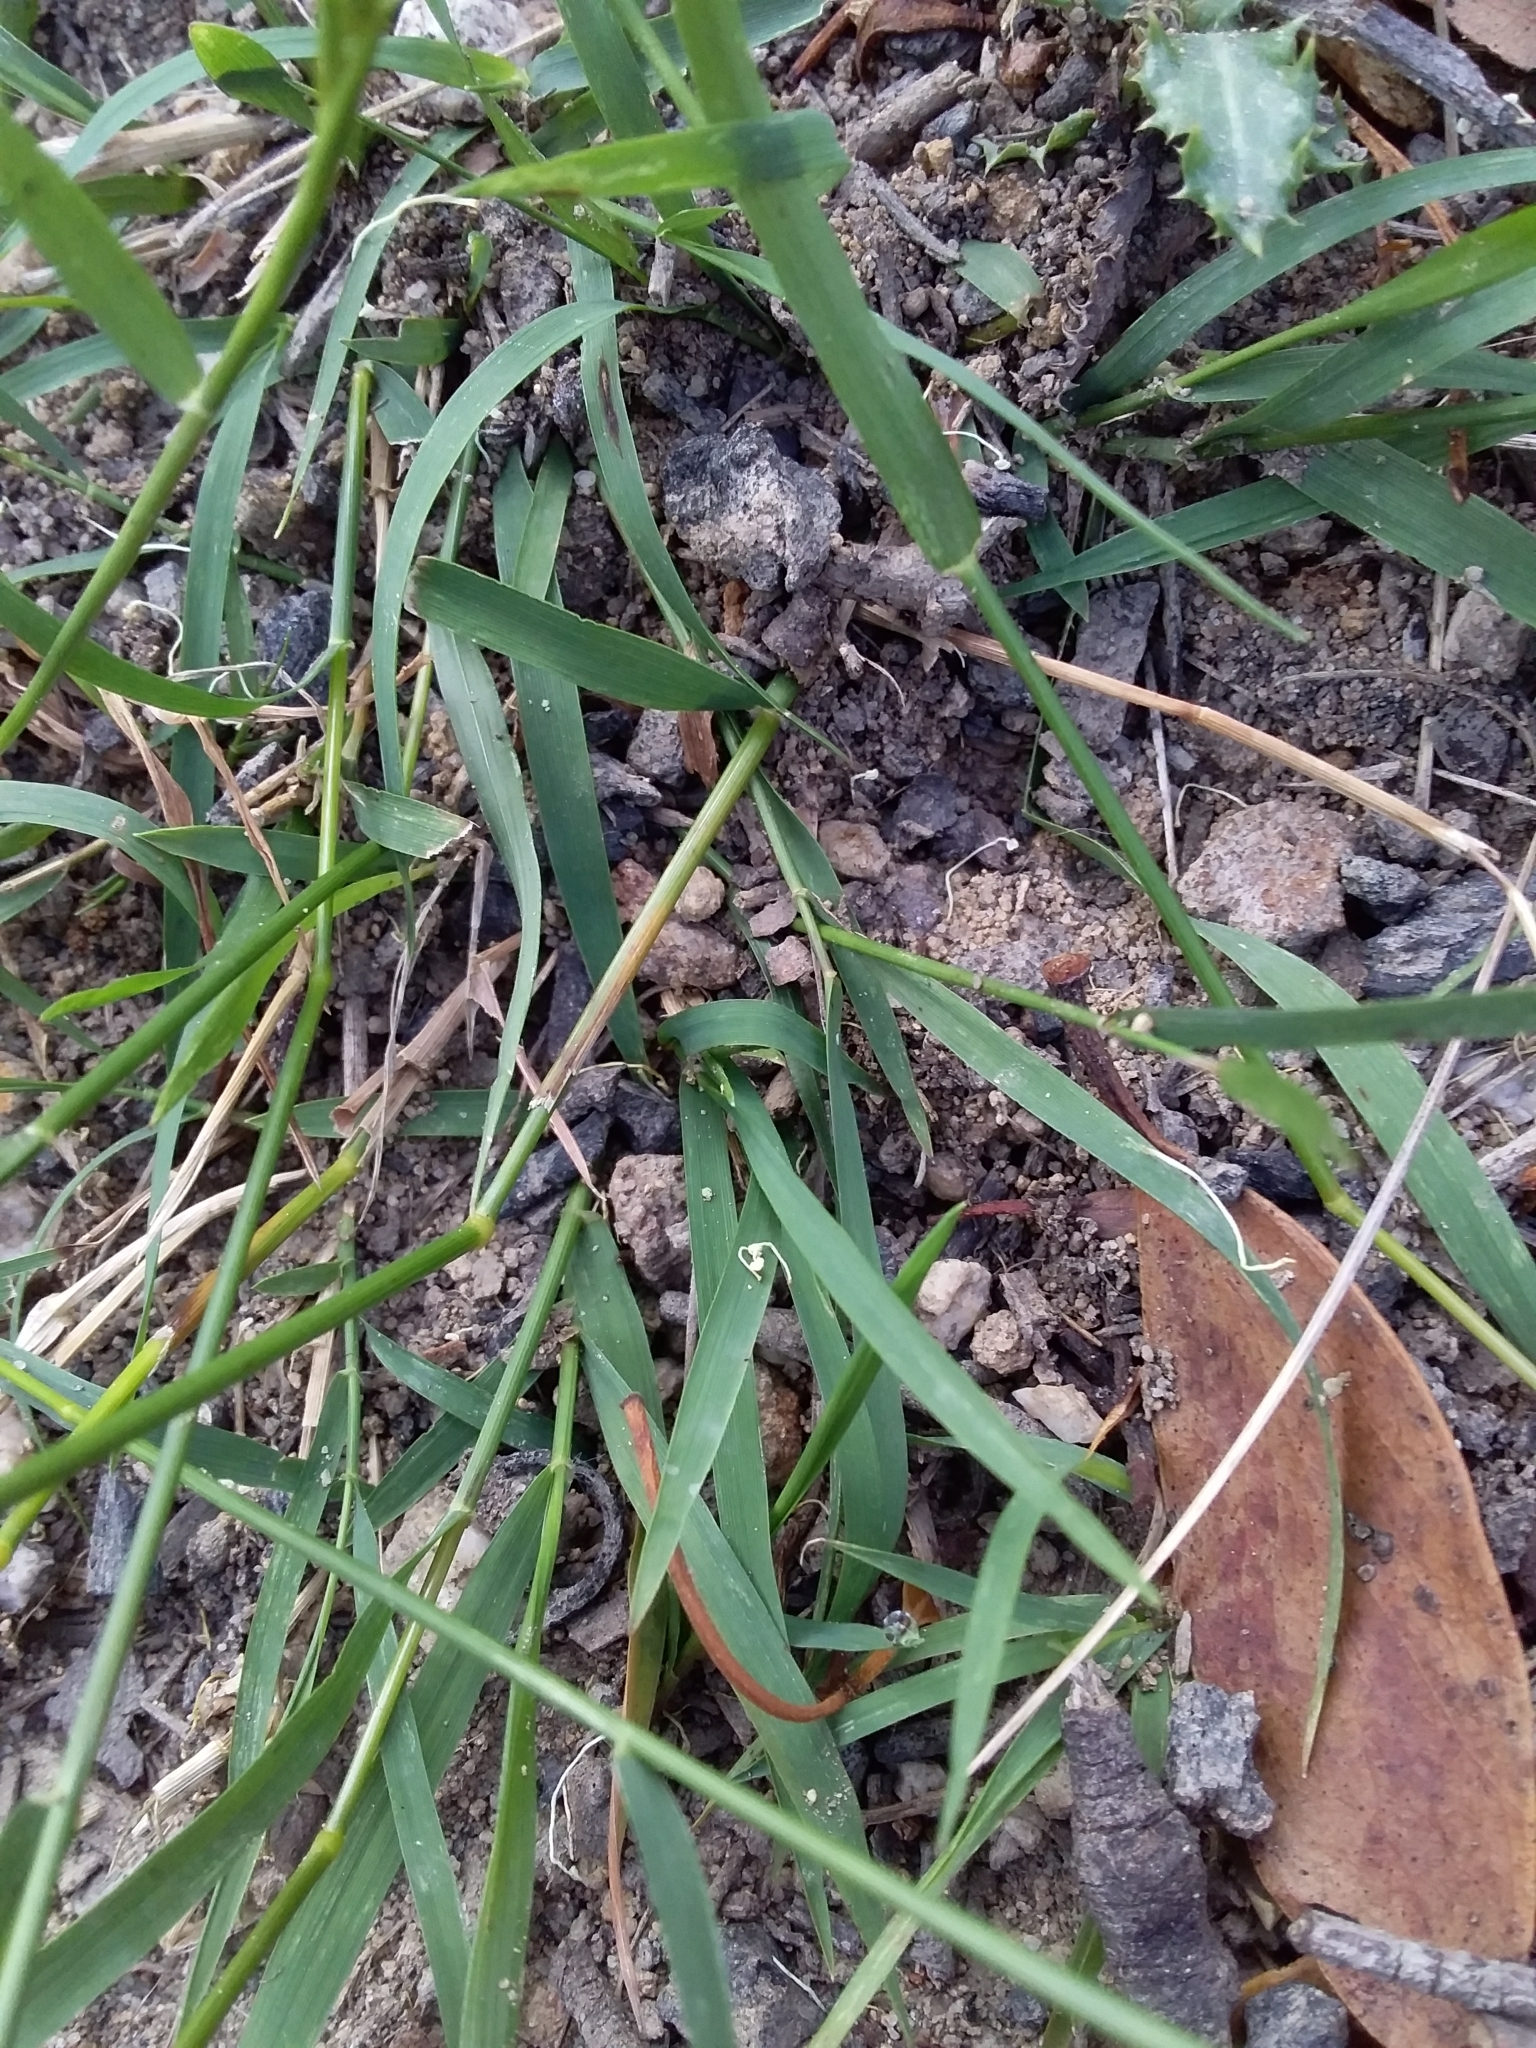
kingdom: Plantae
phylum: Tracheophyta
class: Liliopsida
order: Poales
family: Poaceae
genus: Microlaena
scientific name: Microlaena stipoides
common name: Meadow ricegrass
